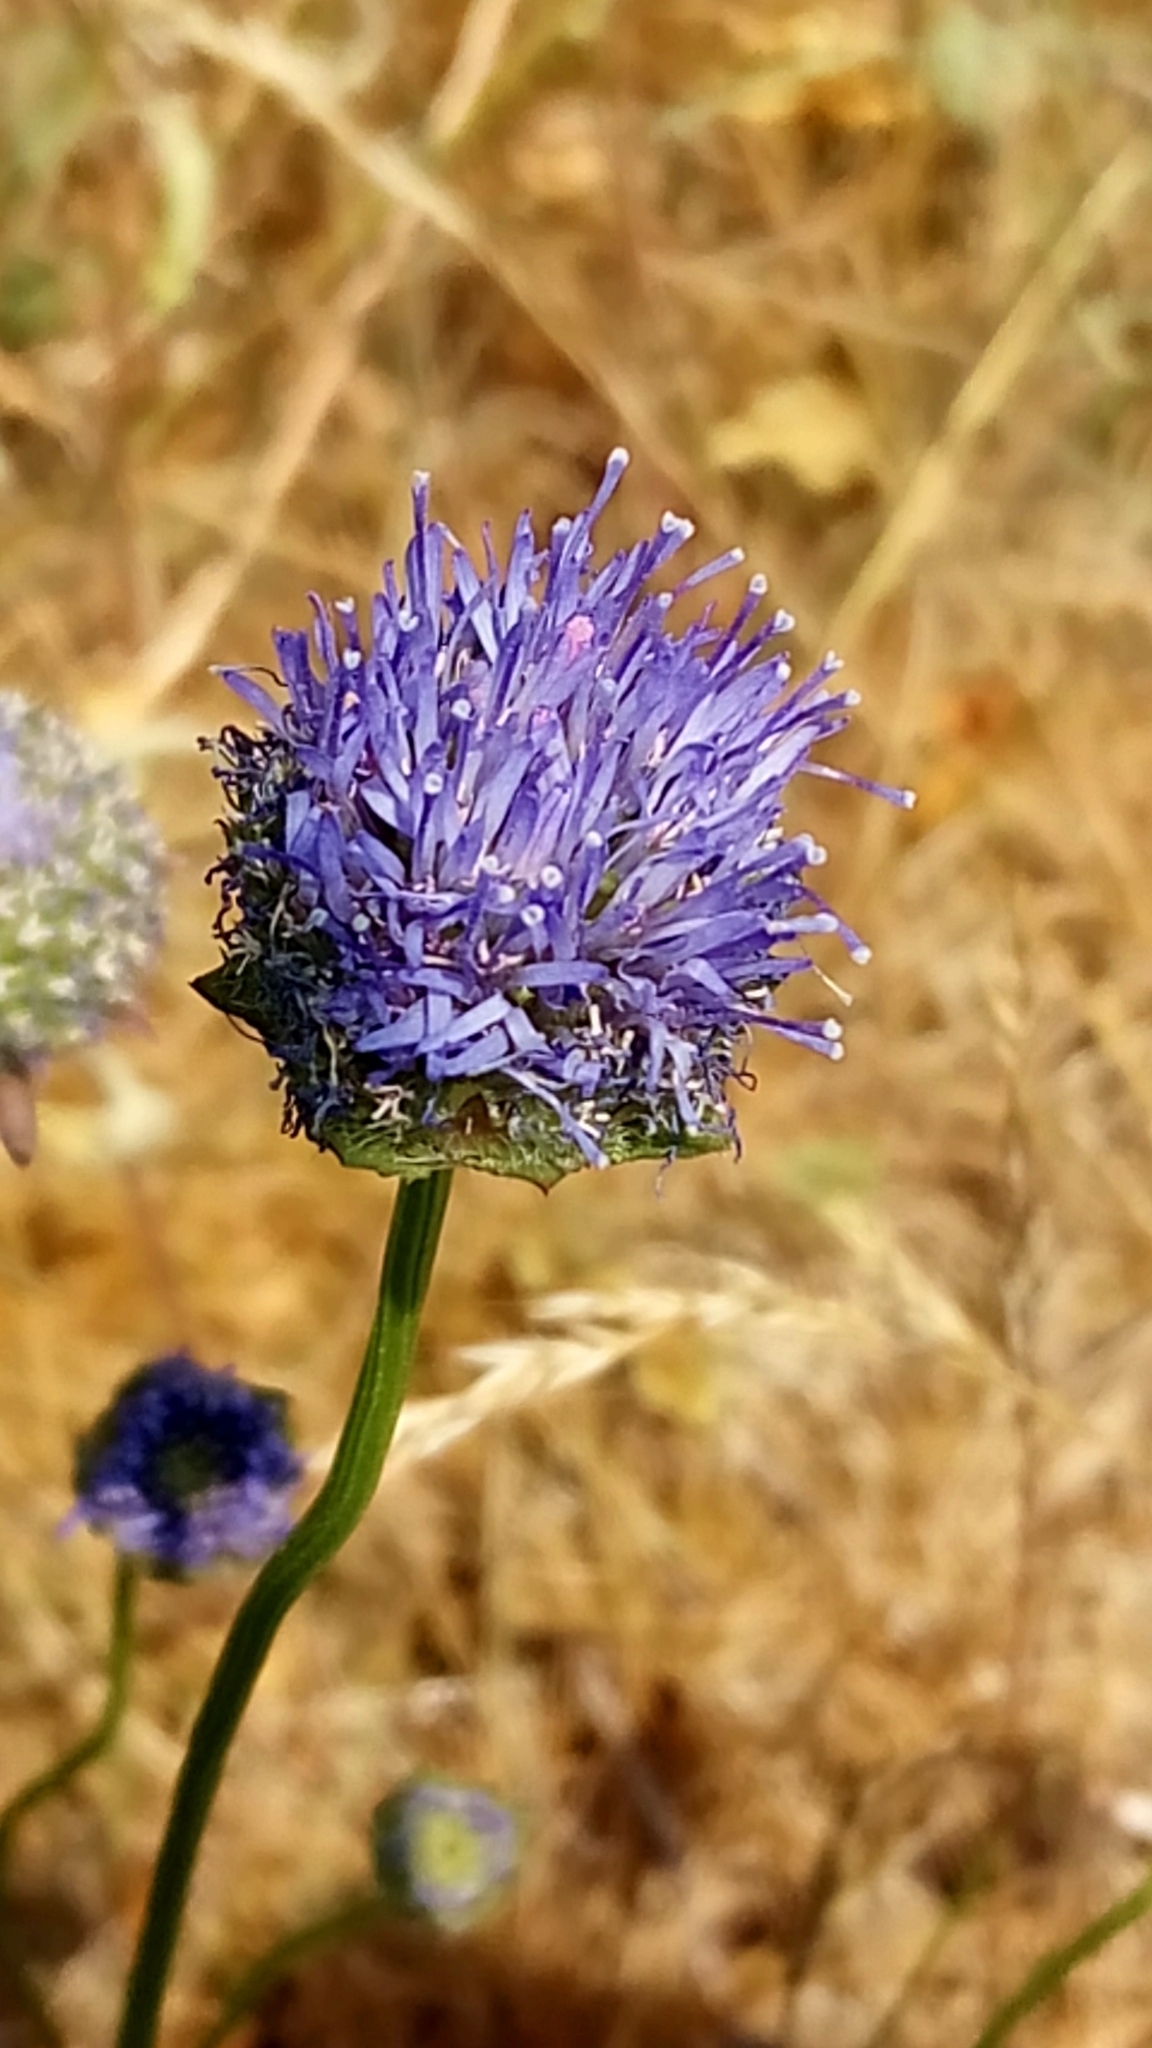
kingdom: Plantae
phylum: Tracheophyta
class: Magnoliopsida
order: Asterales
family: Campanulaceae
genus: Jasione
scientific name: Jasione montana
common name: Sheep's-bit
